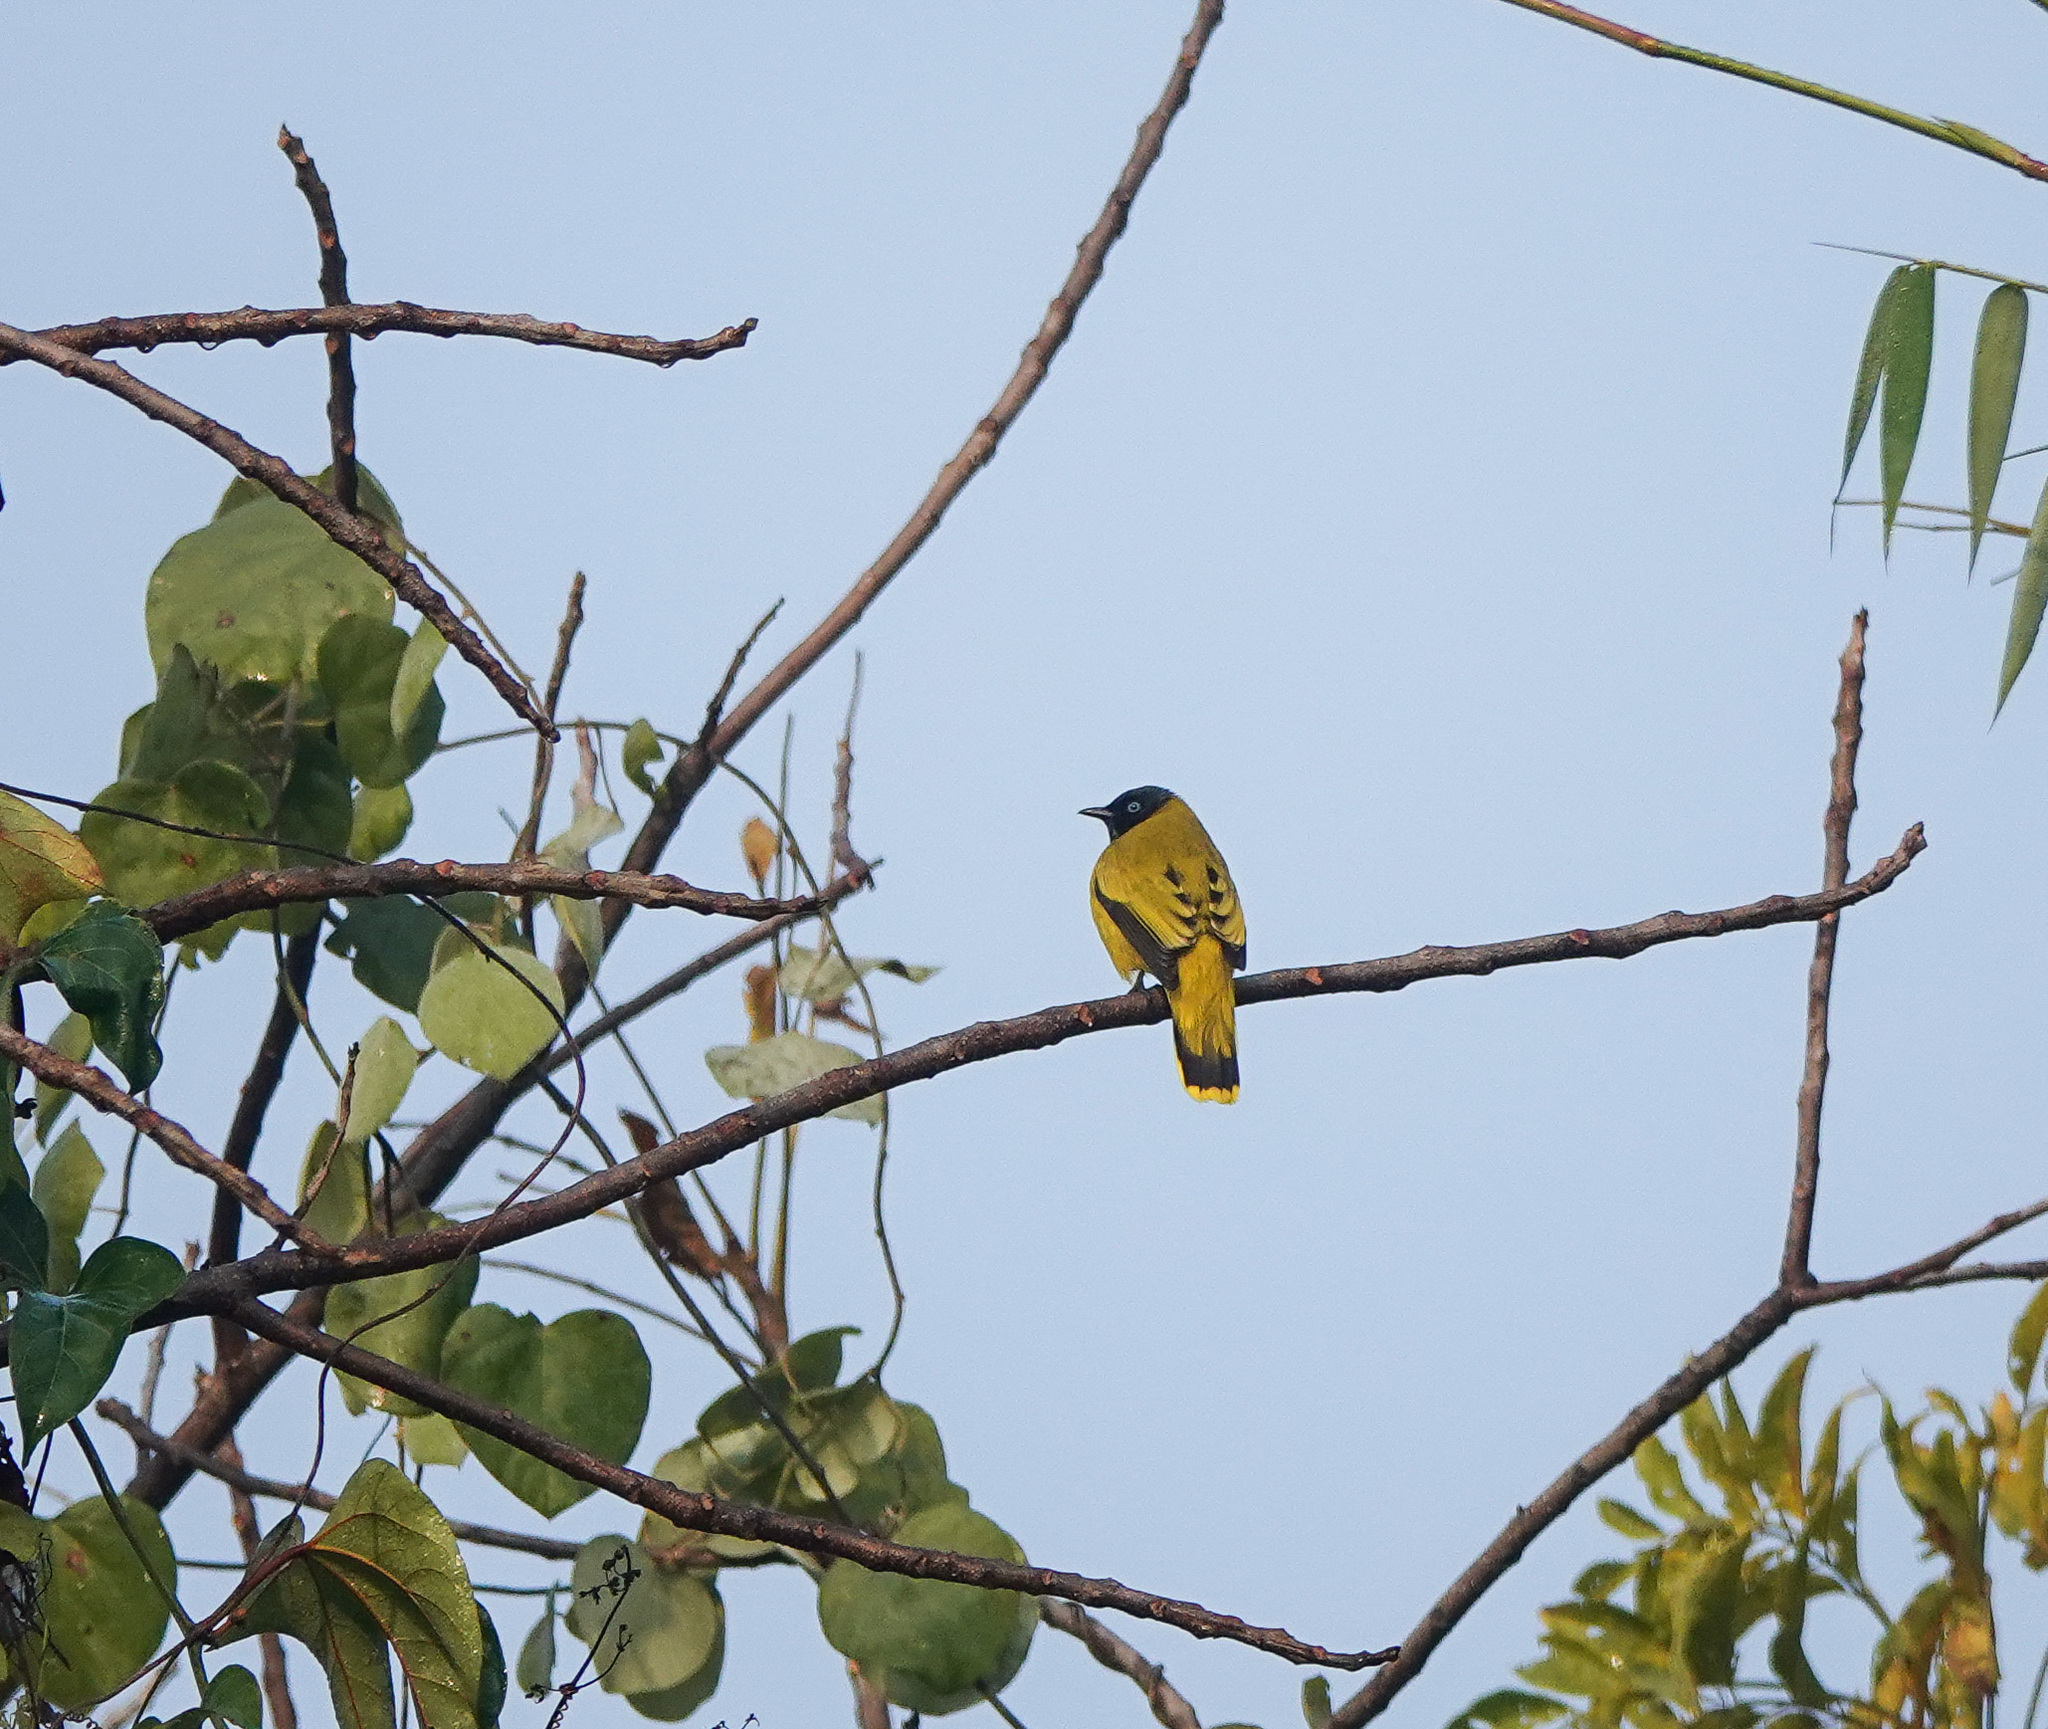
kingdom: Animalia
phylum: Chordata
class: Aves
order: Passeriformes
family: Pycnonotidae
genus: Microtarsus
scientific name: Microtarsus
